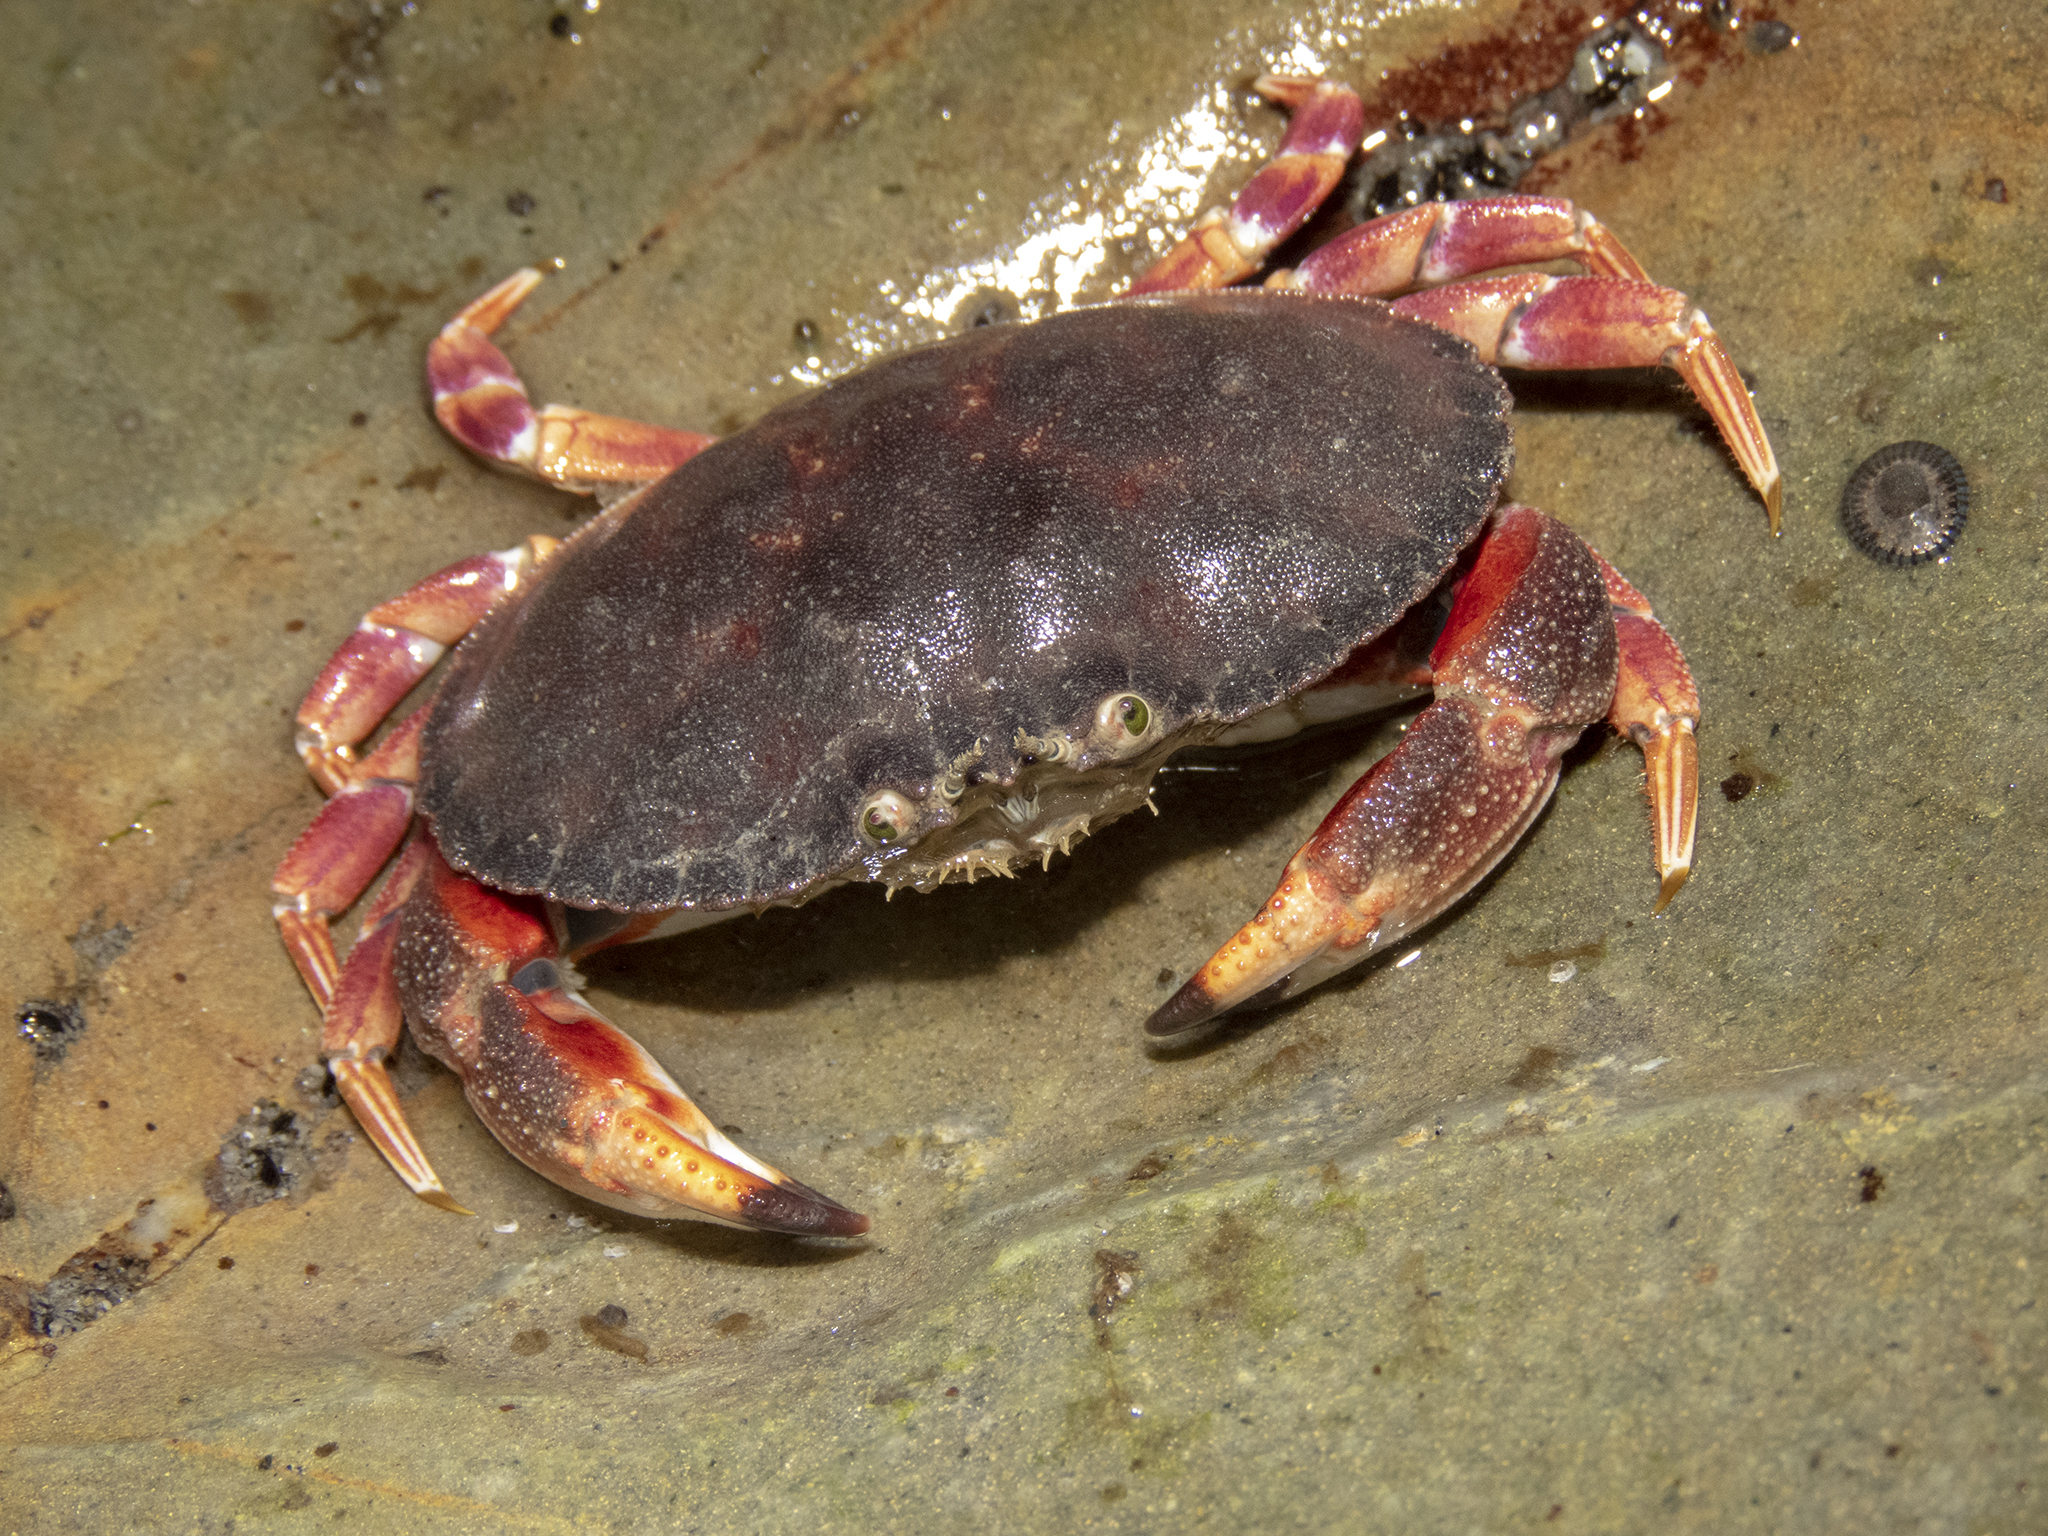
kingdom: Animalia
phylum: Arthropoda
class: Malacostraca
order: Decapoda
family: Cancridae
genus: Metacarcinus
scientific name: Metacarcinus novaezelandiae
